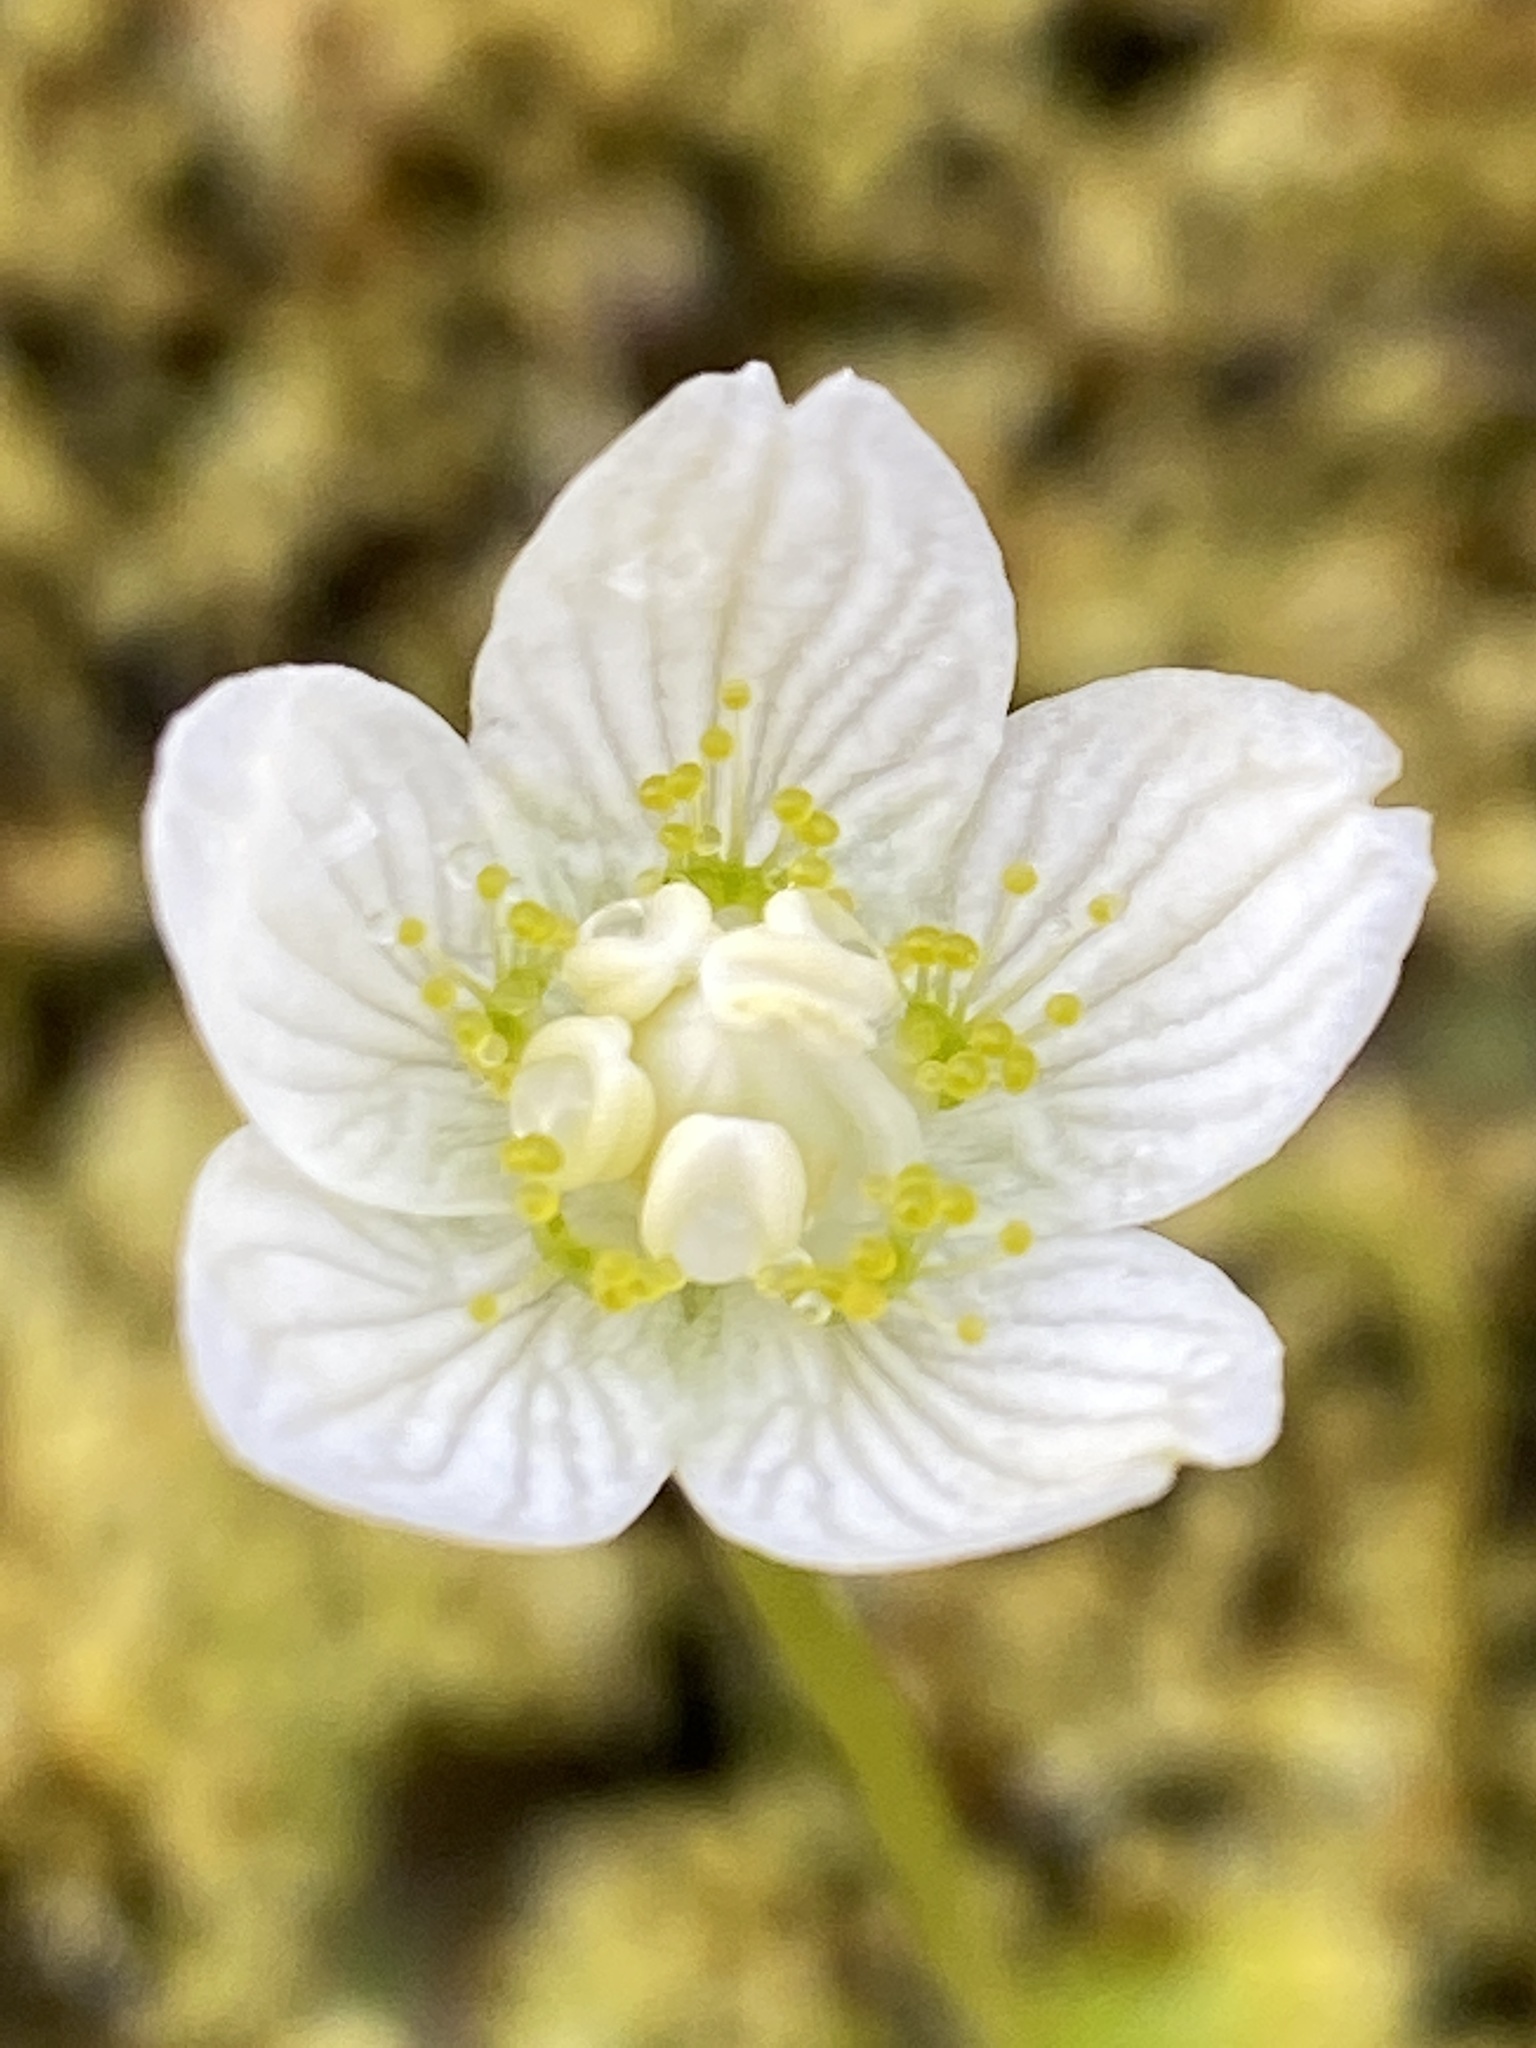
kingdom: Plantae
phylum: Tracheophyta
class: Magnoliopsida
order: Celastrales
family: Parnassiaceae
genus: Parnassia
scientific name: Parnassia palustris
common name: Grass-of-parnassus
